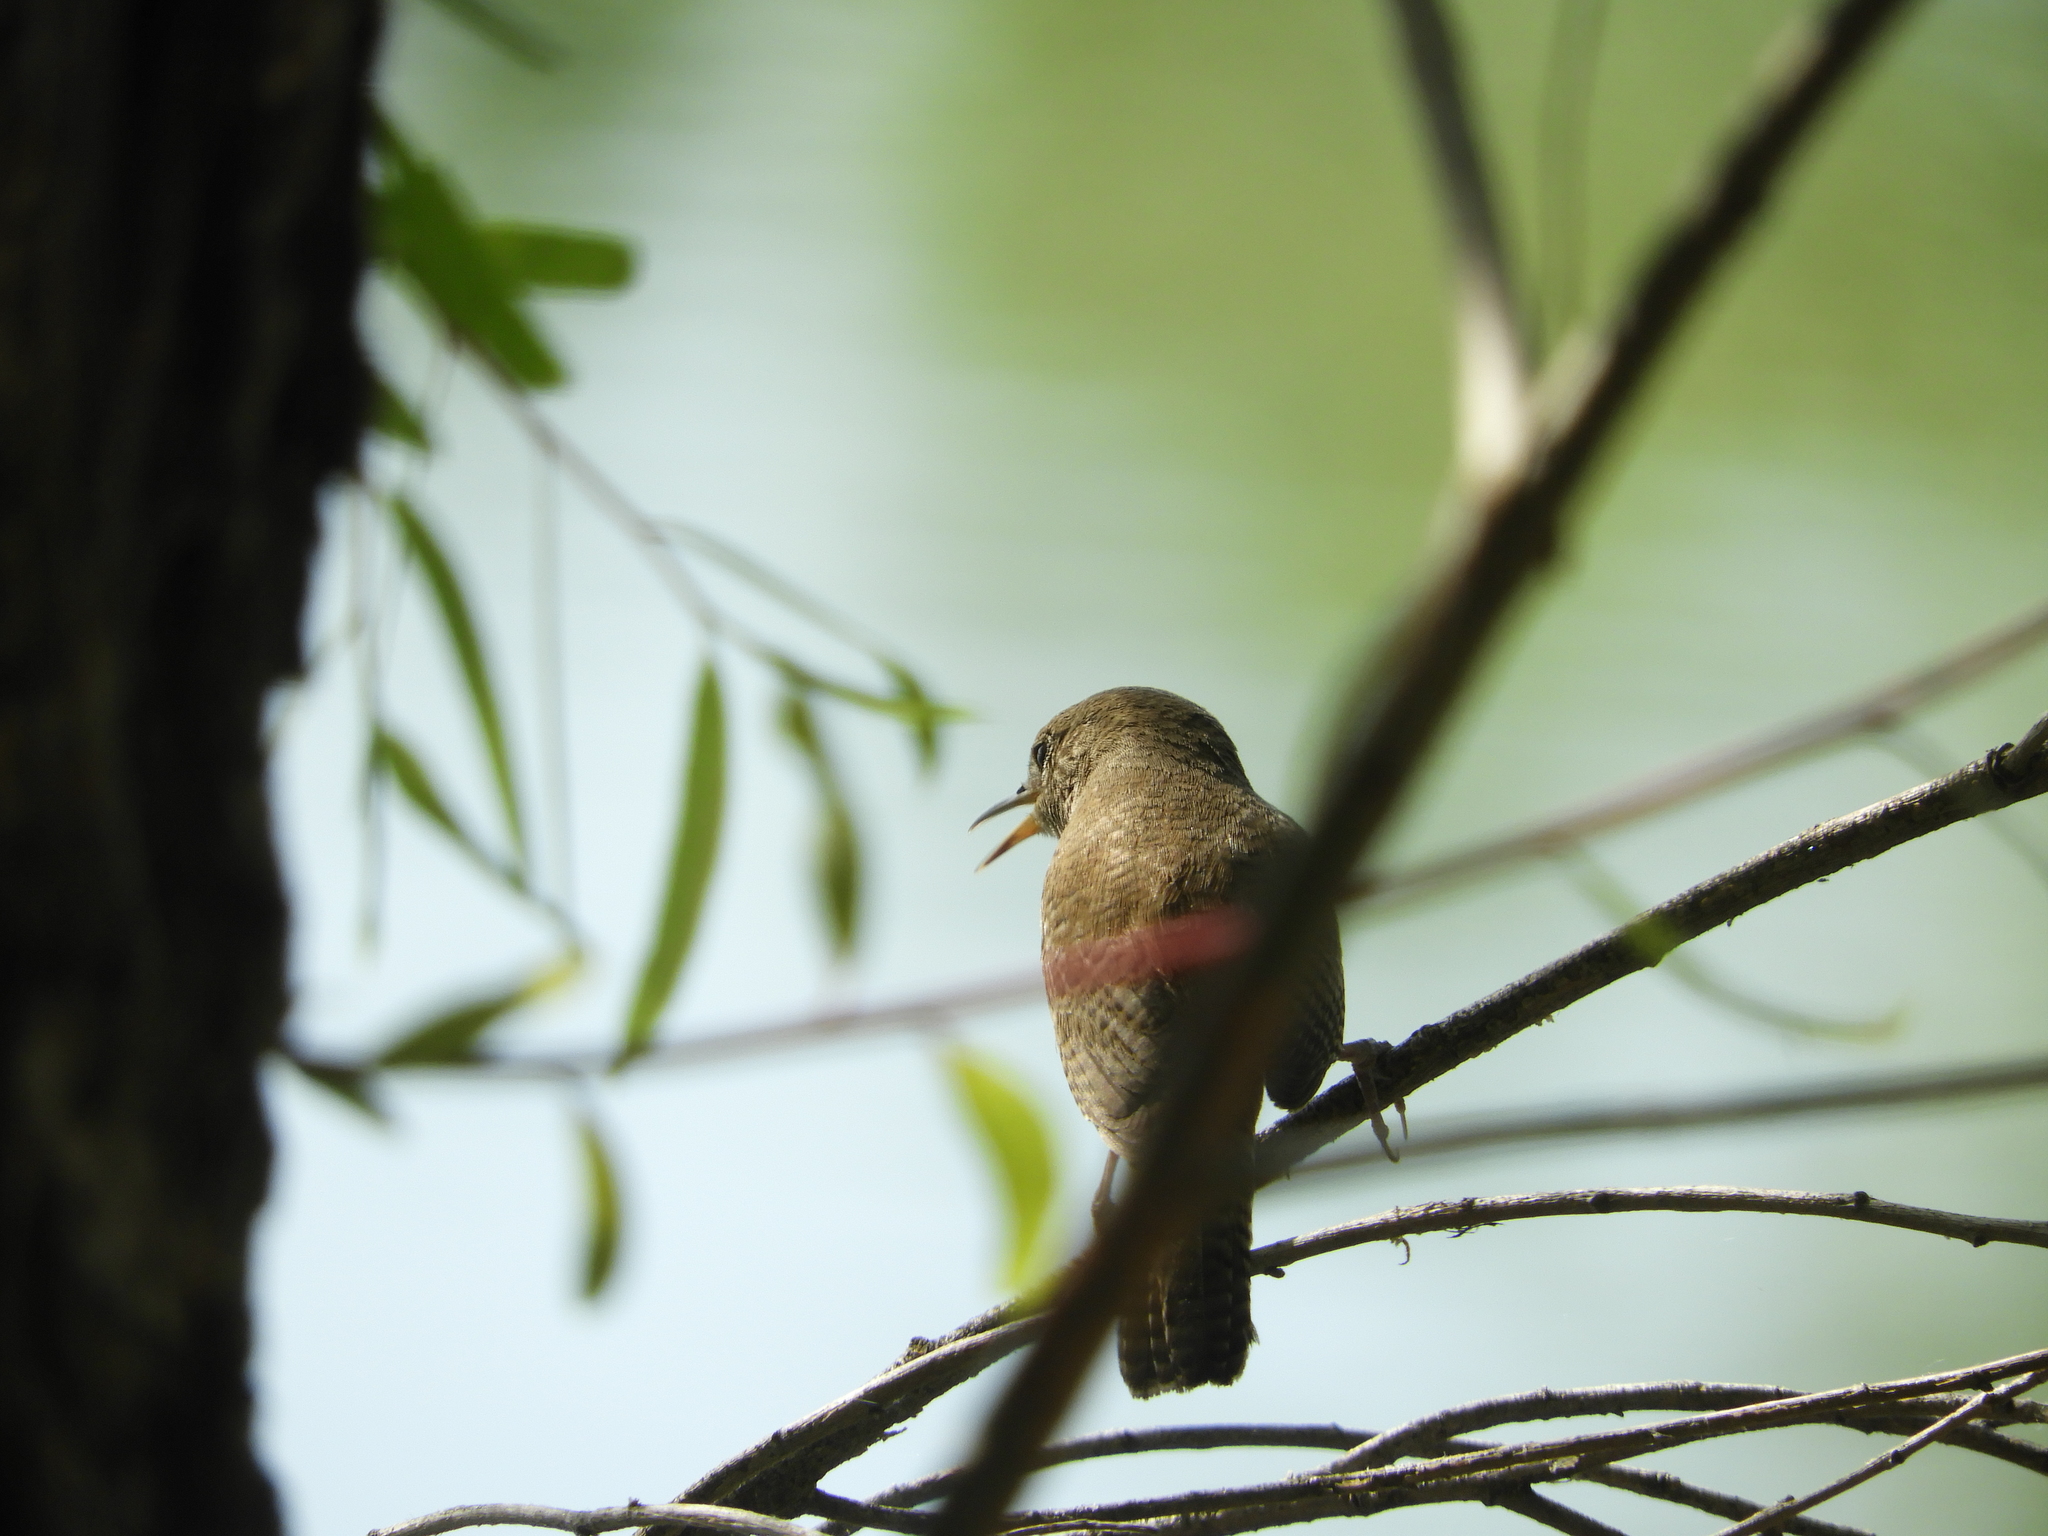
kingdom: Animalia
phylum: Chordata
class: Aves
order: Passeriformes
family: Troglodytidae
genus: Troglodytes
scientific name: Troglodytes aedon
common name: House wren
